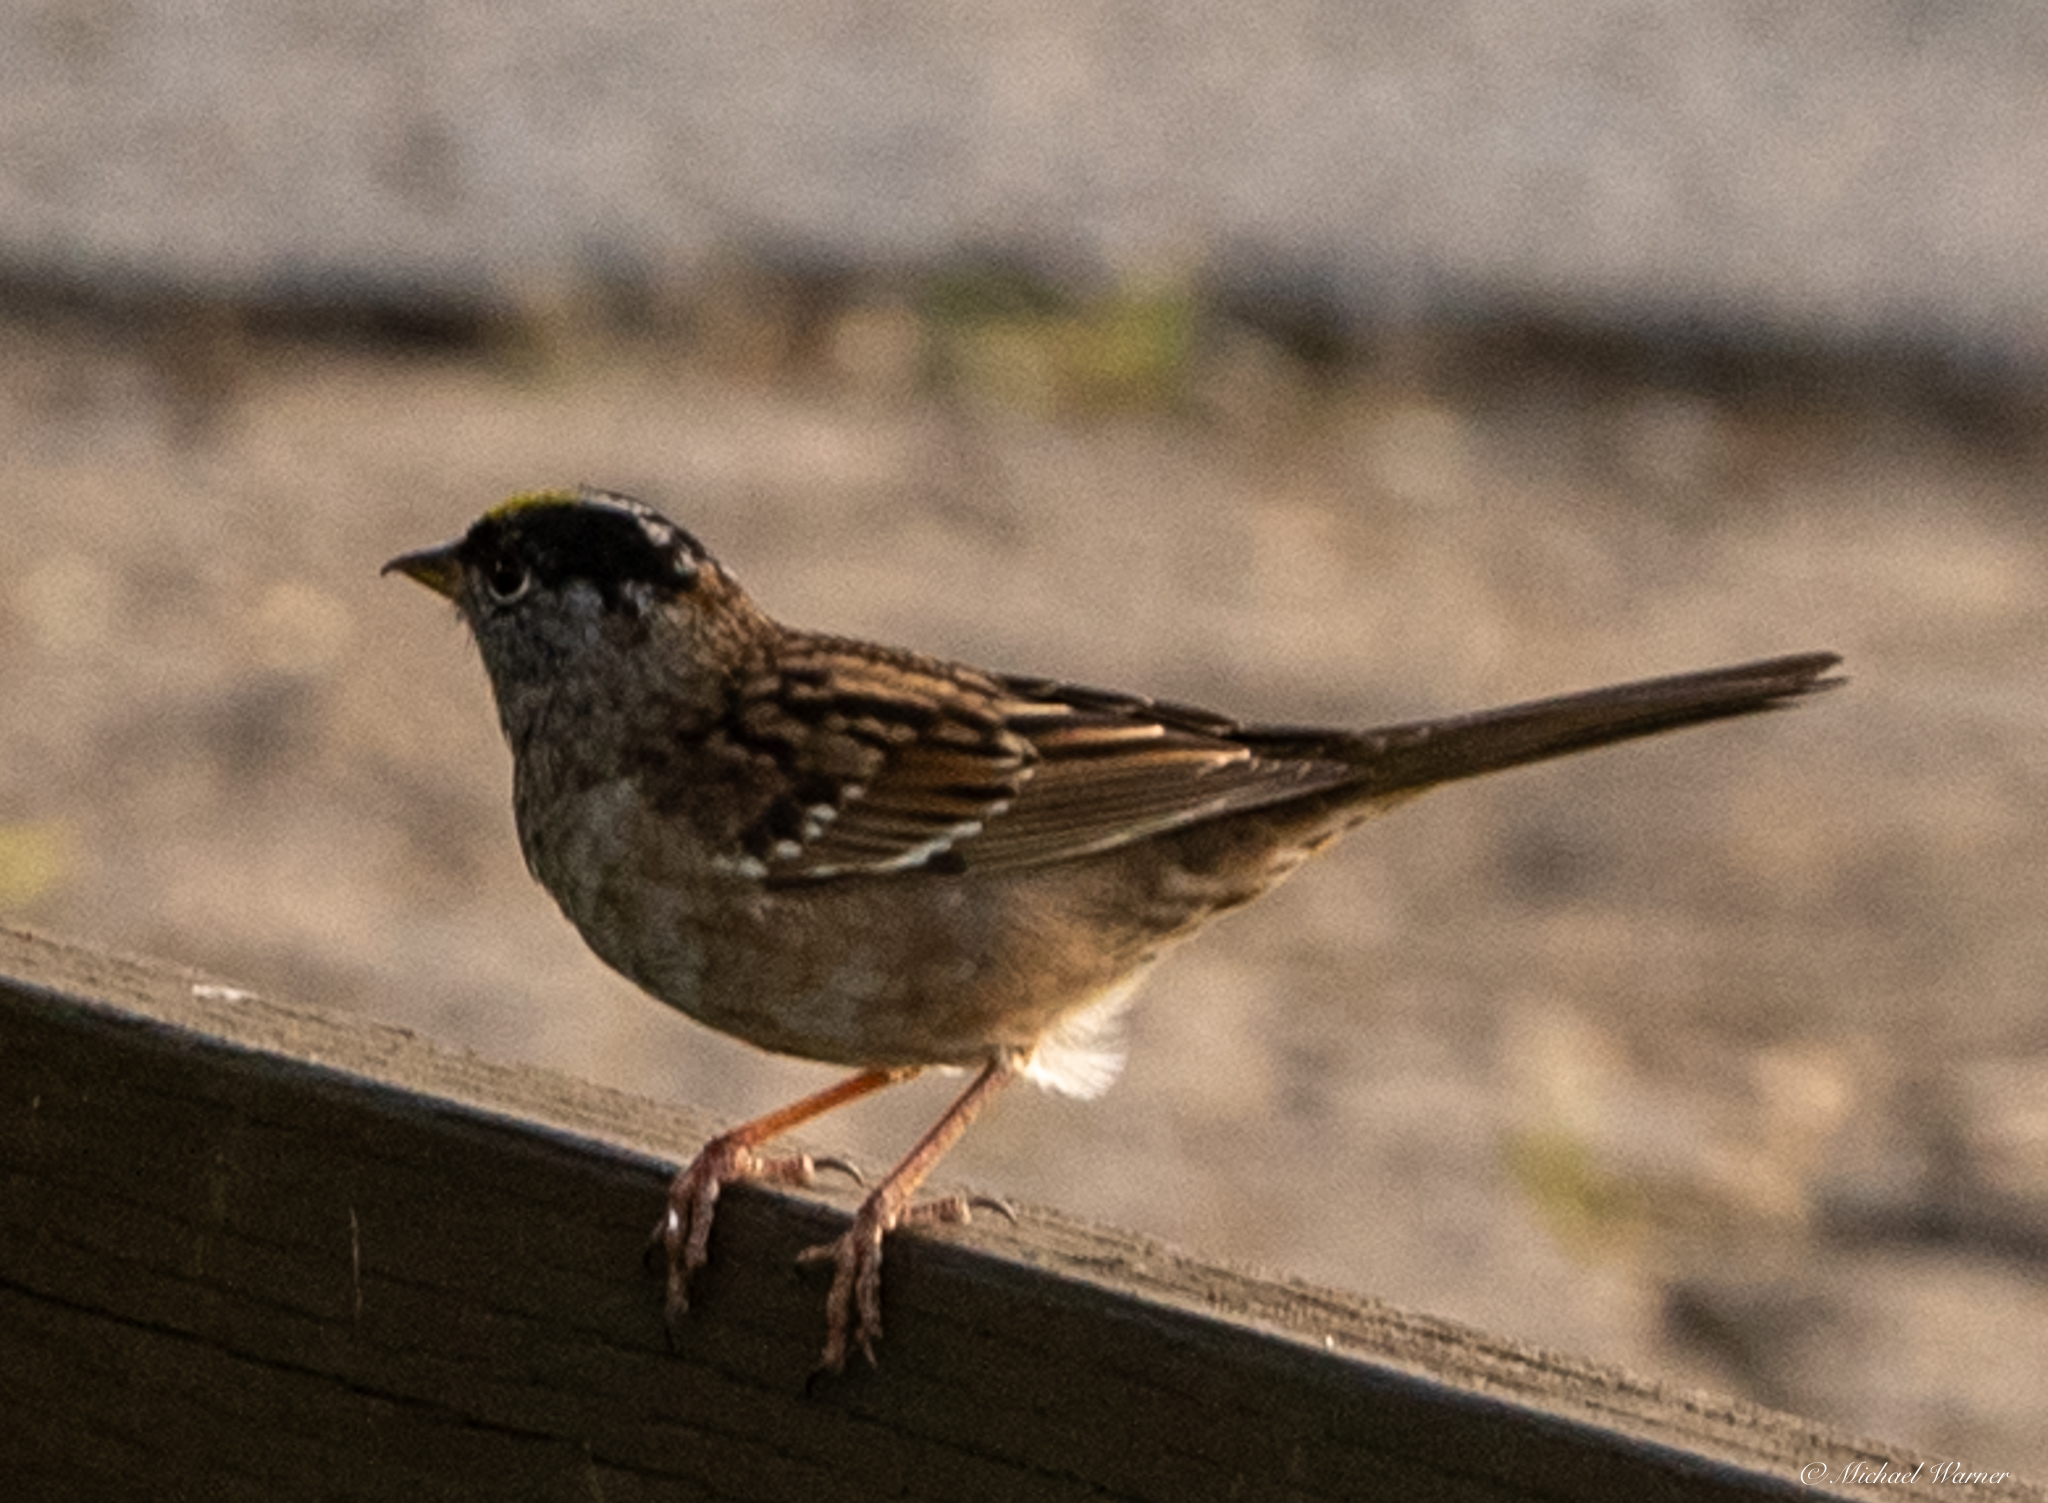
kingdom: Animalia
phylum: Chordata
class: Aves
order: Passeriformes
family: Passerellidae
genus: Zonotrichia
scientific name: Zonotrichia atricapilla
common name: Golden-crowned sparrow
